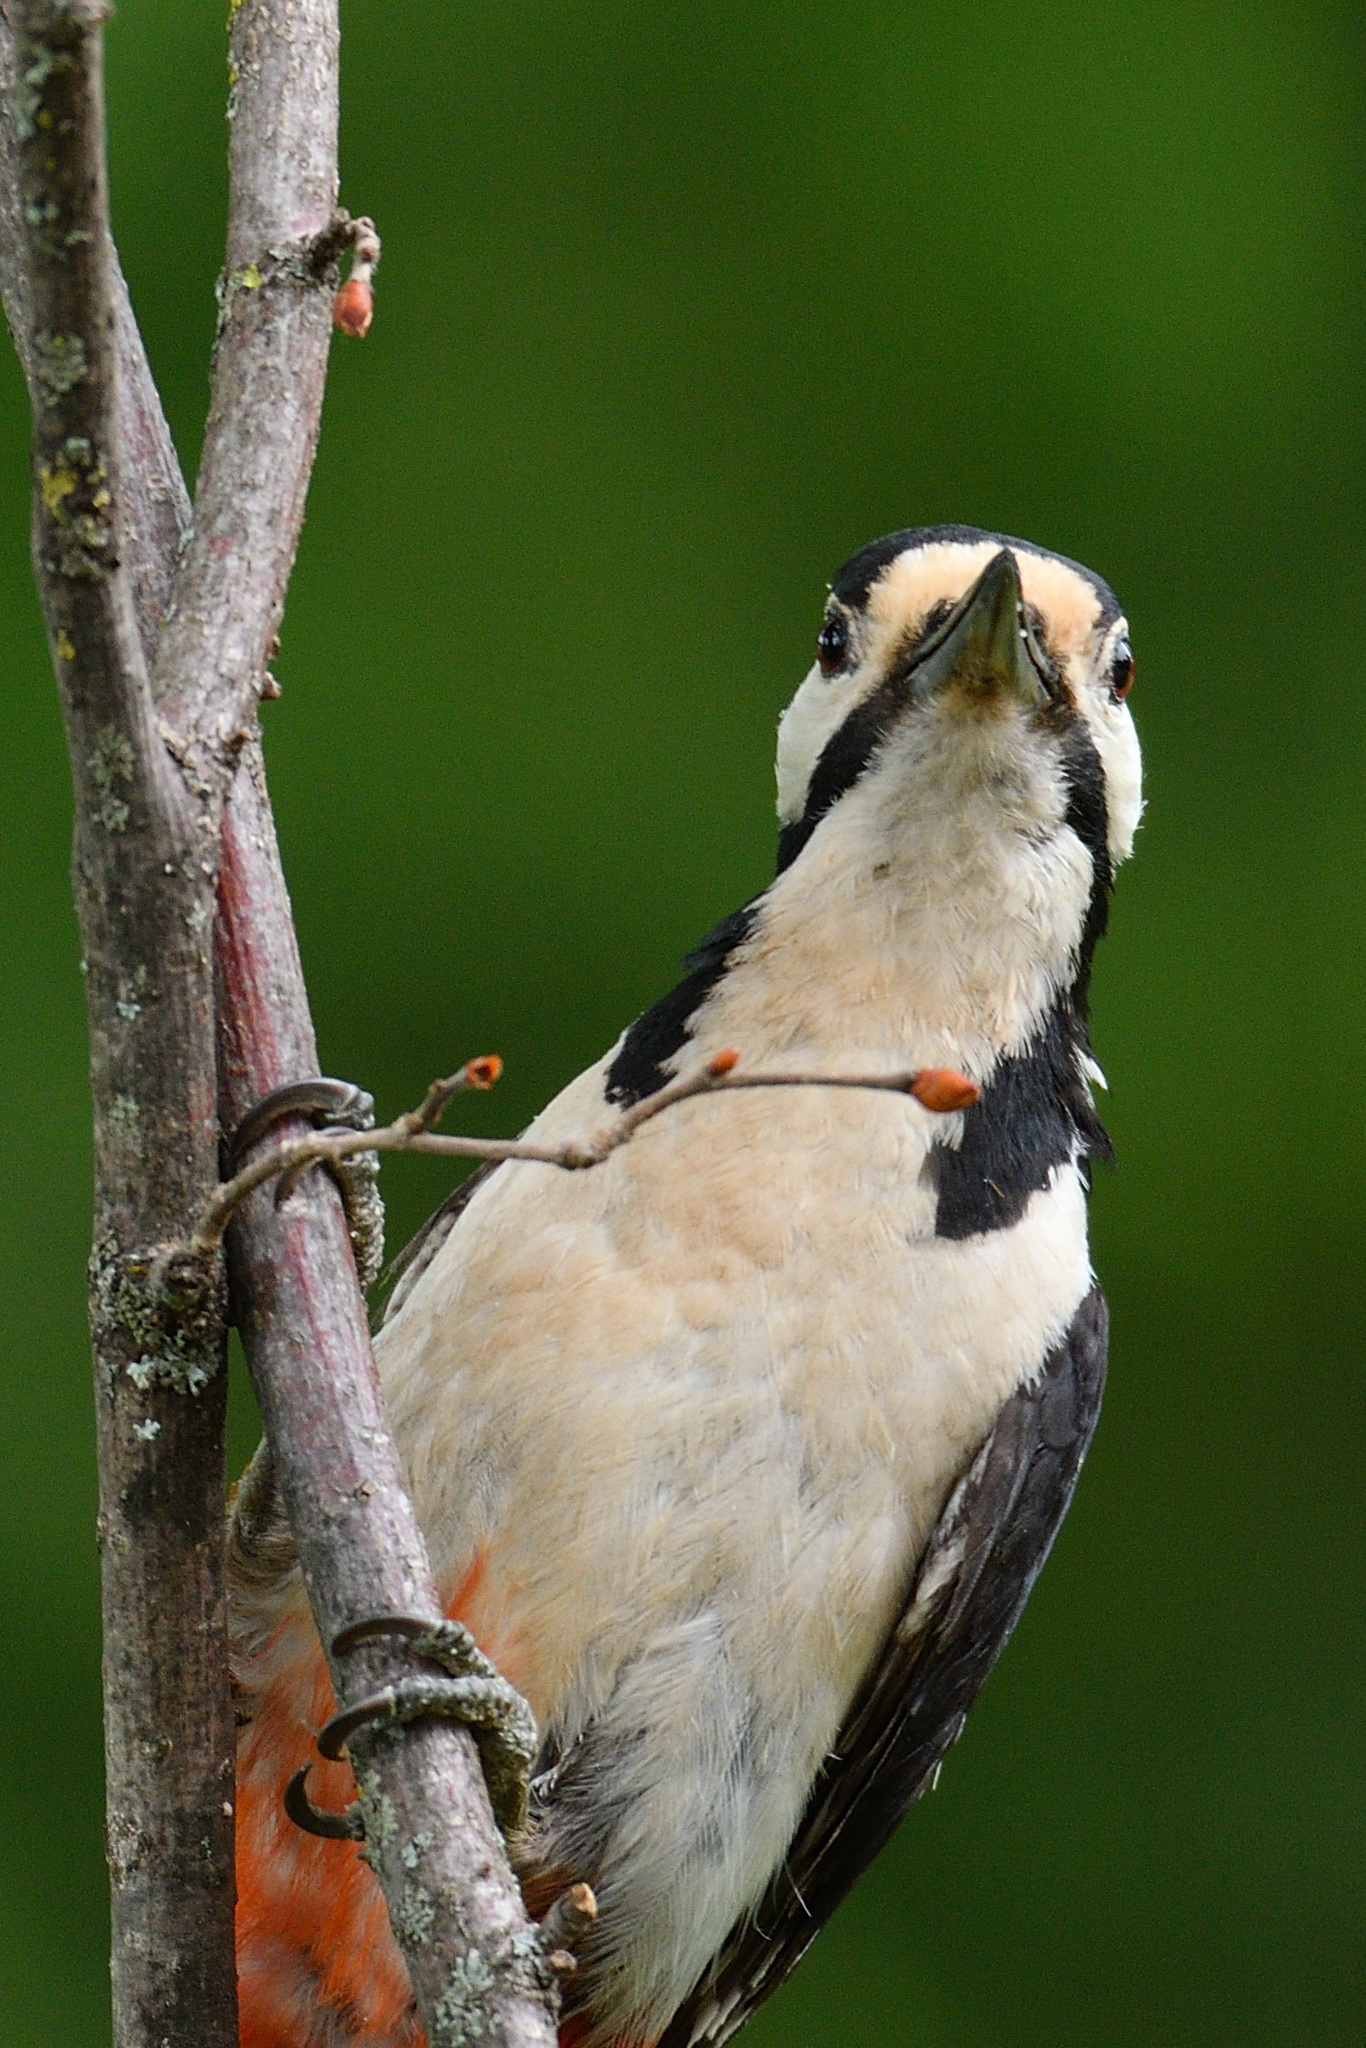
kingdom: Animalia
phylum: Chordata
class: Aves
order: Piciformes
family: Picidae
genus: Dendrocopos
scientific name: Dendrocopos major
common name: Great spotted woodpecker
